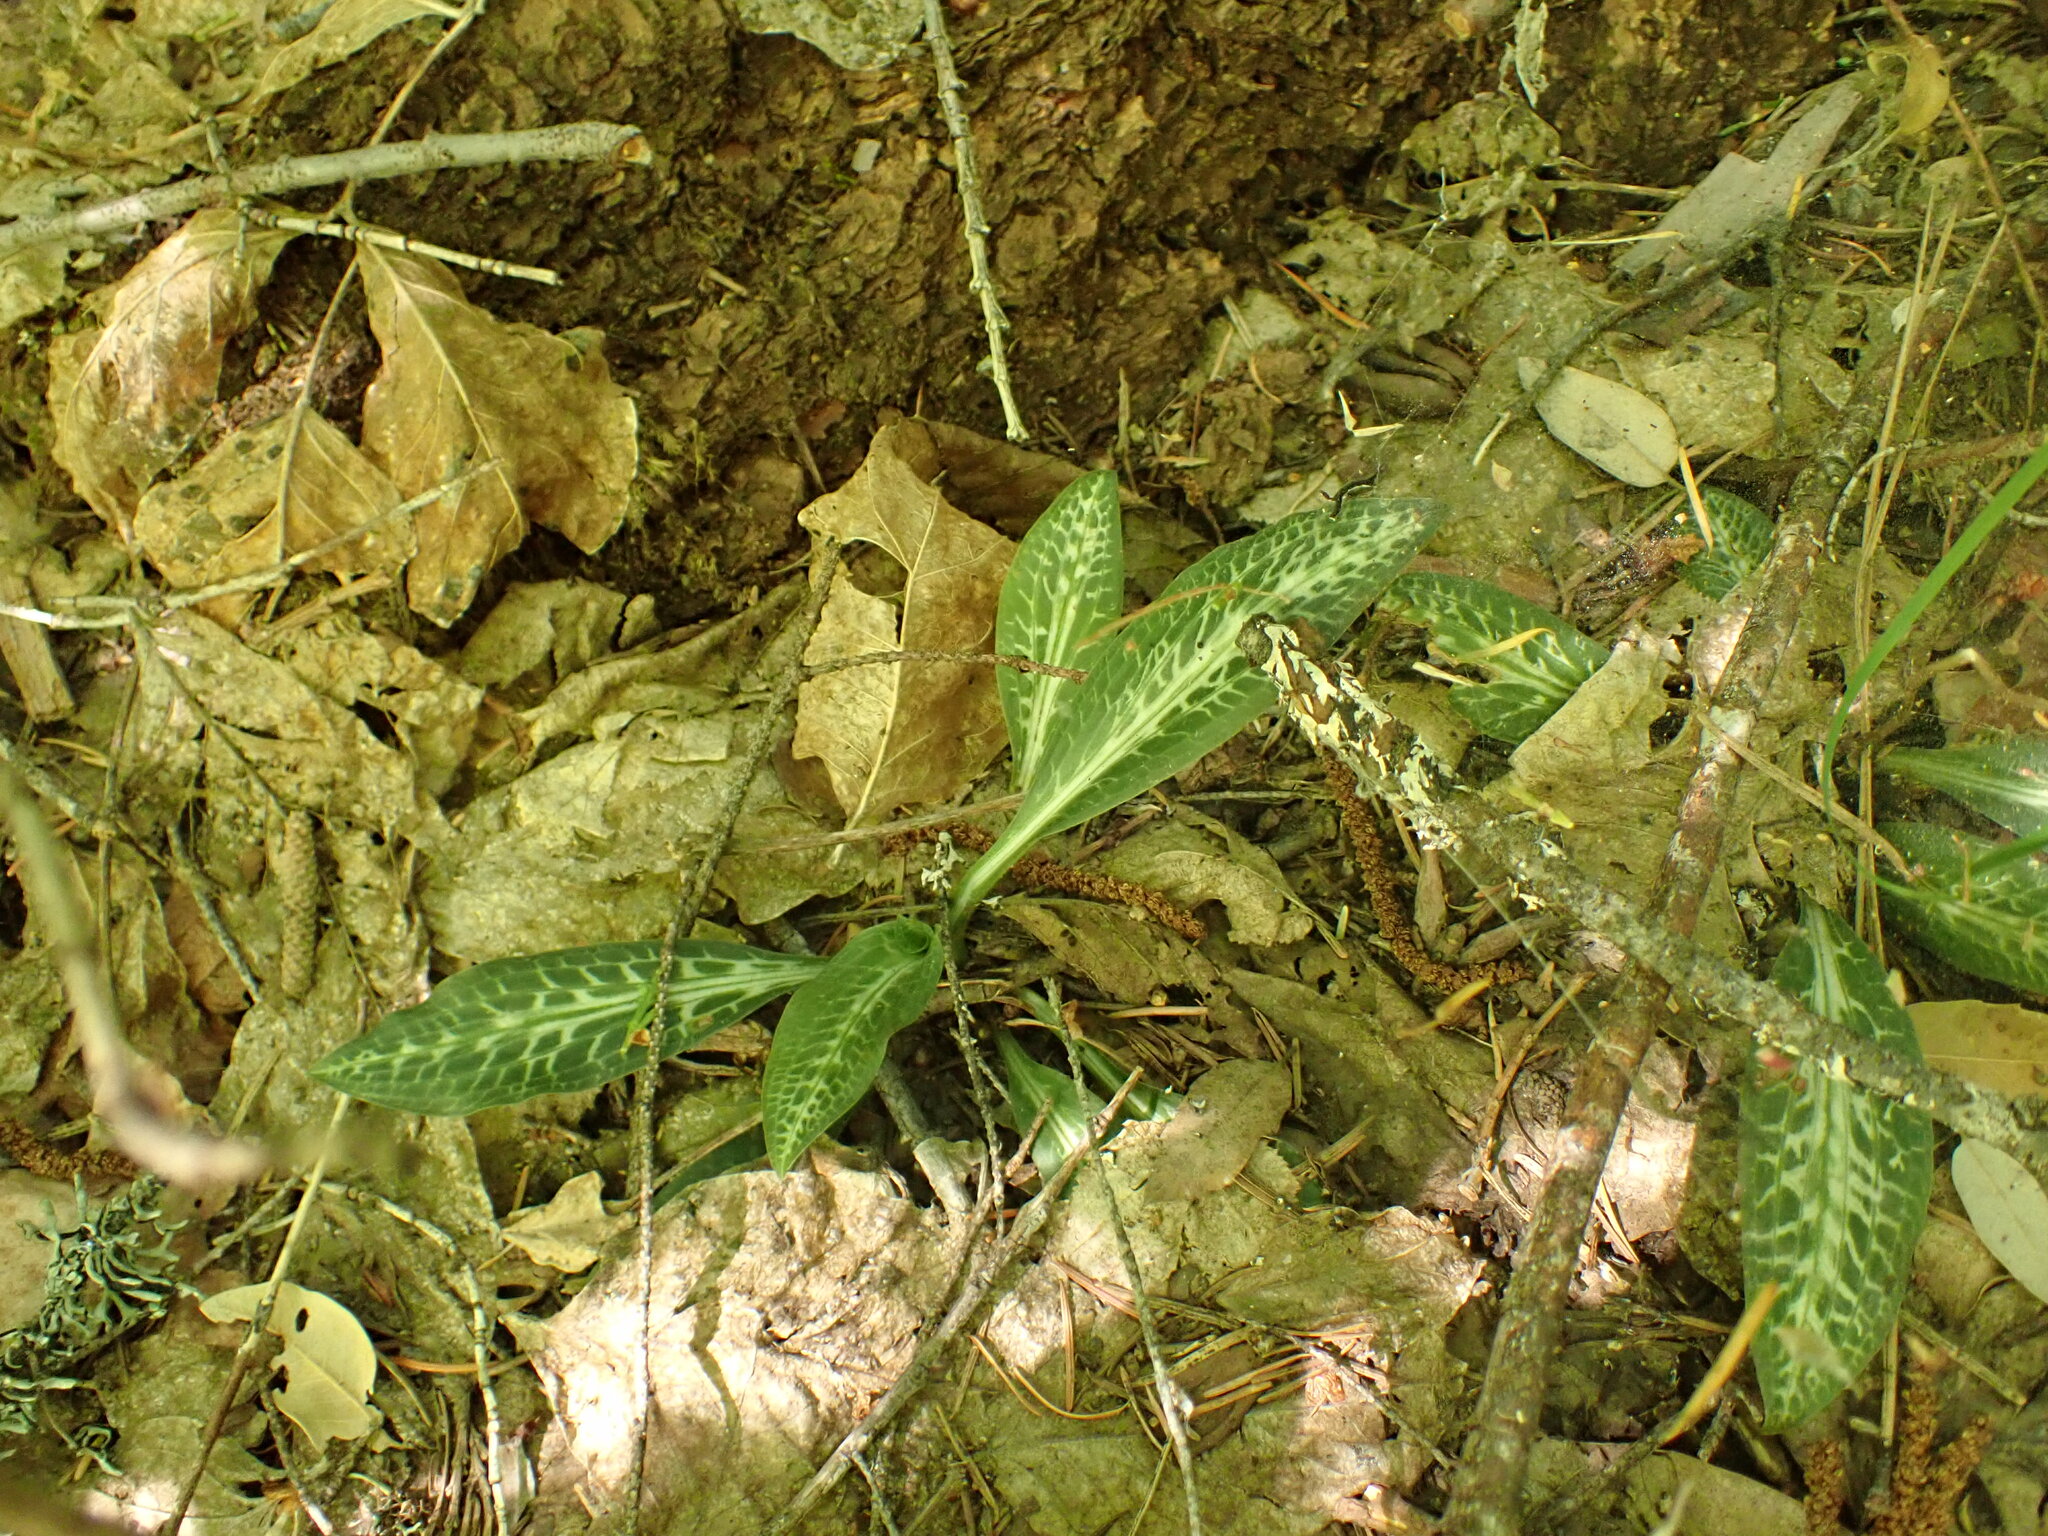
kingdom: Plantae
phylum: Tracheophyta
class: Liliopsida
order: Asparagales
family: Orchidaceae
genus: Goodyera
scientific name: Goodyera oblongifolia
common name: Giant rattlesnake-plantain
